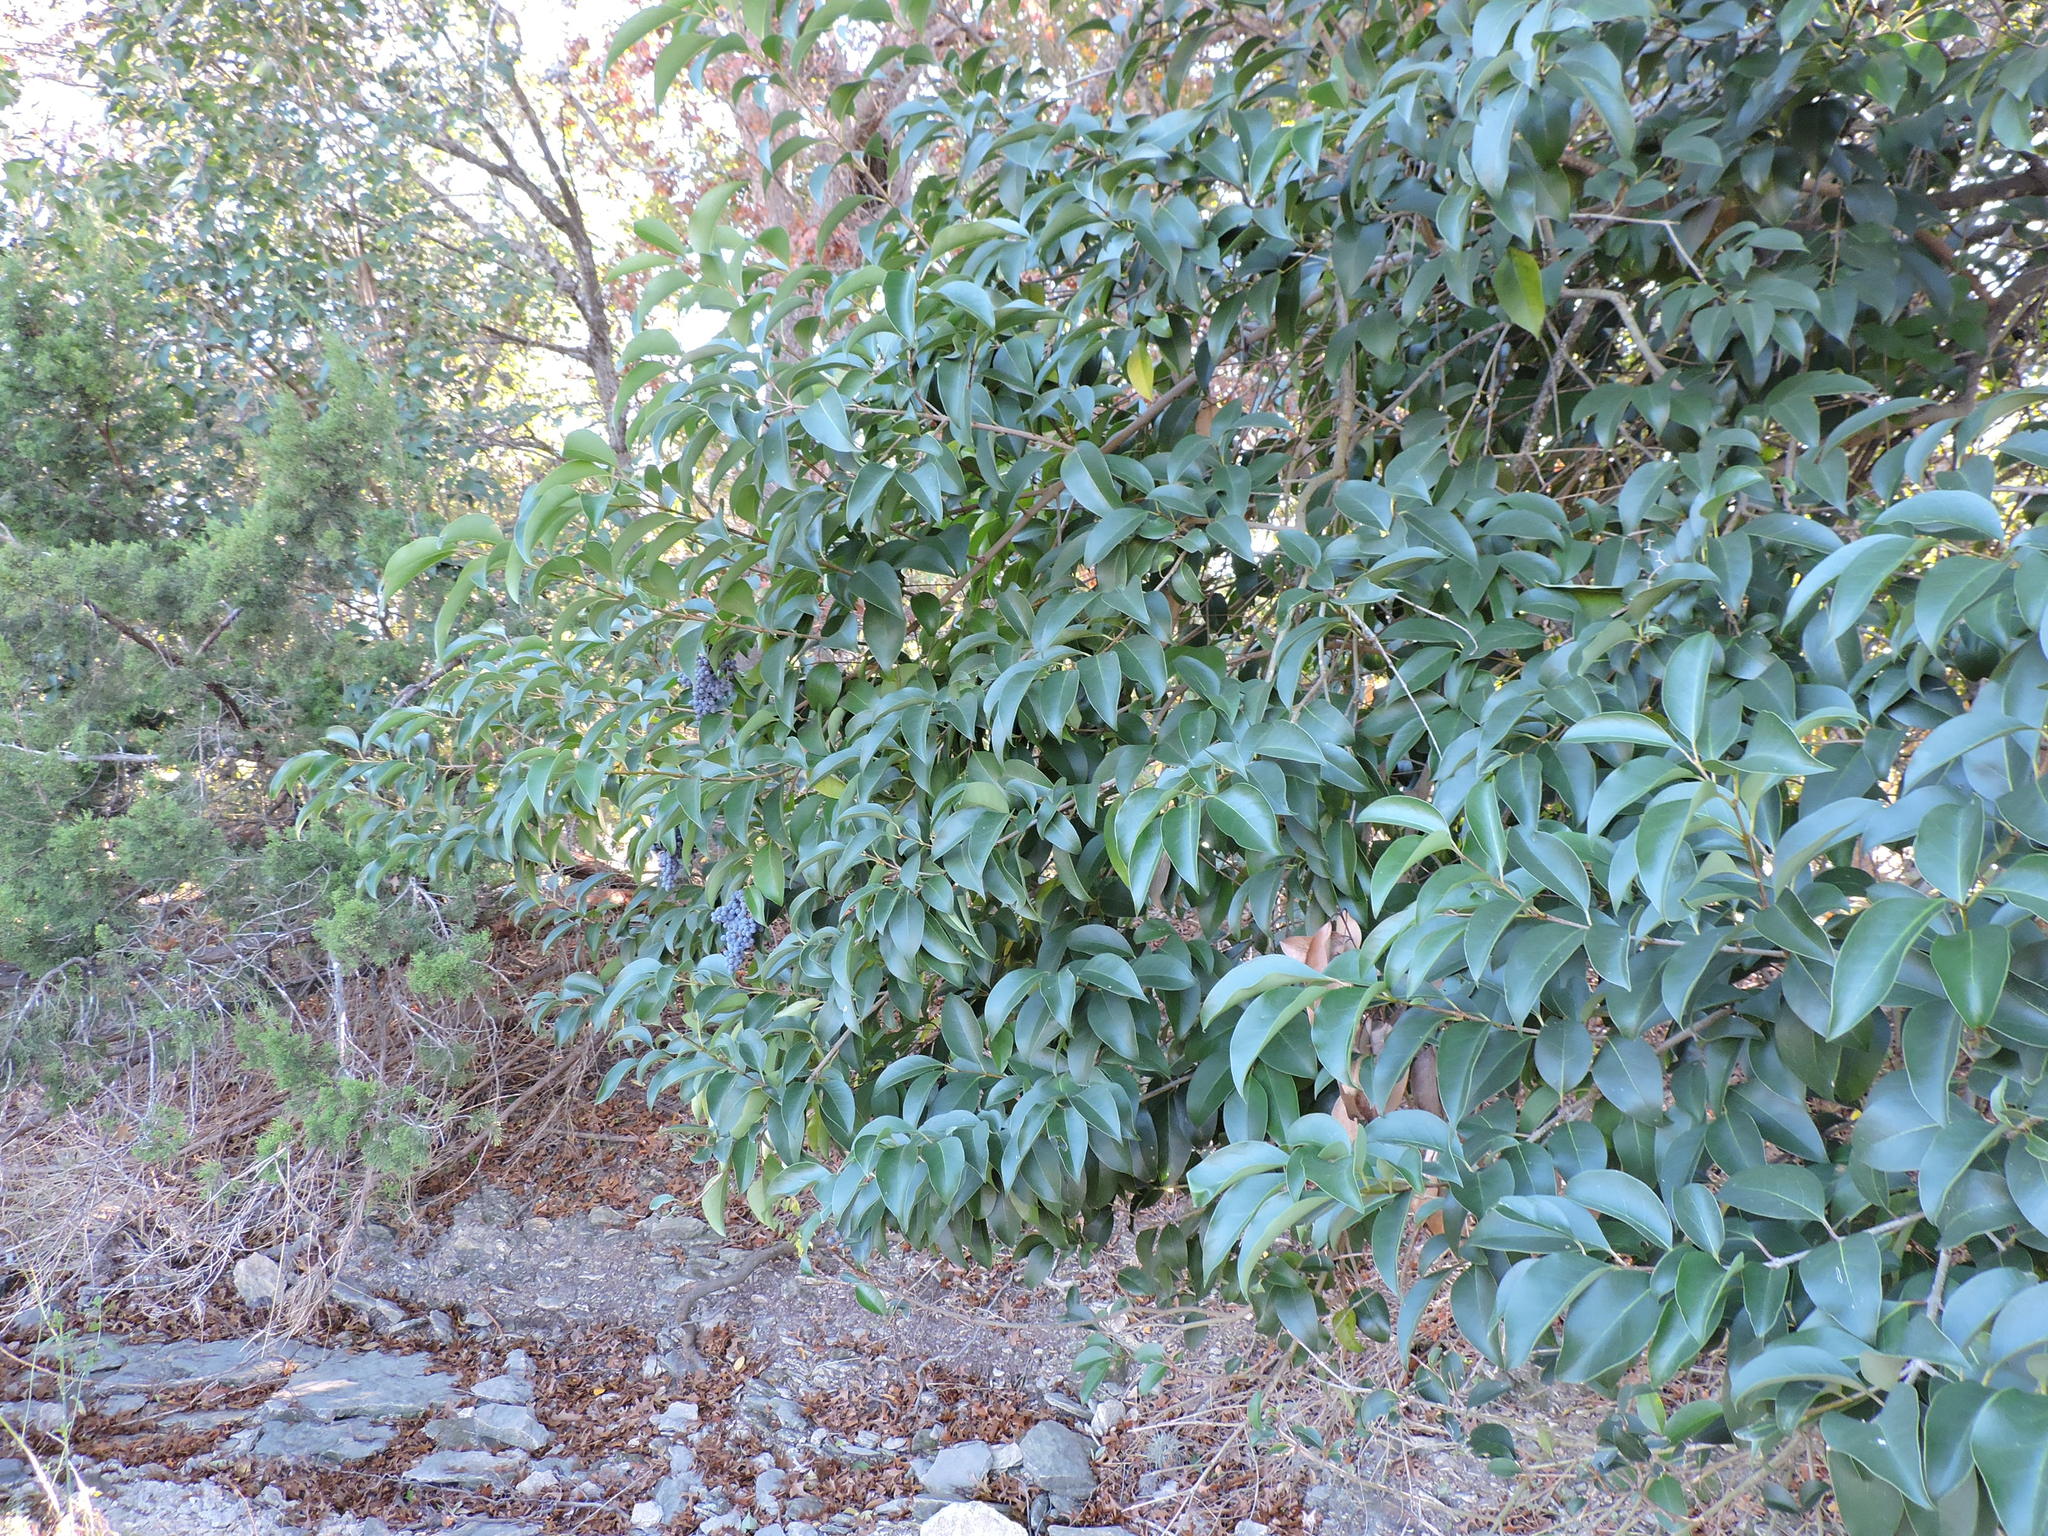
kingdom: Plantae
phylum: Tracheophyta
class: Magnoliopsida
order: Lamiales
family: Oleaceae
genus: Ligustrum
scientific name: Ligustrum lucidum
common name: Glossy privet
